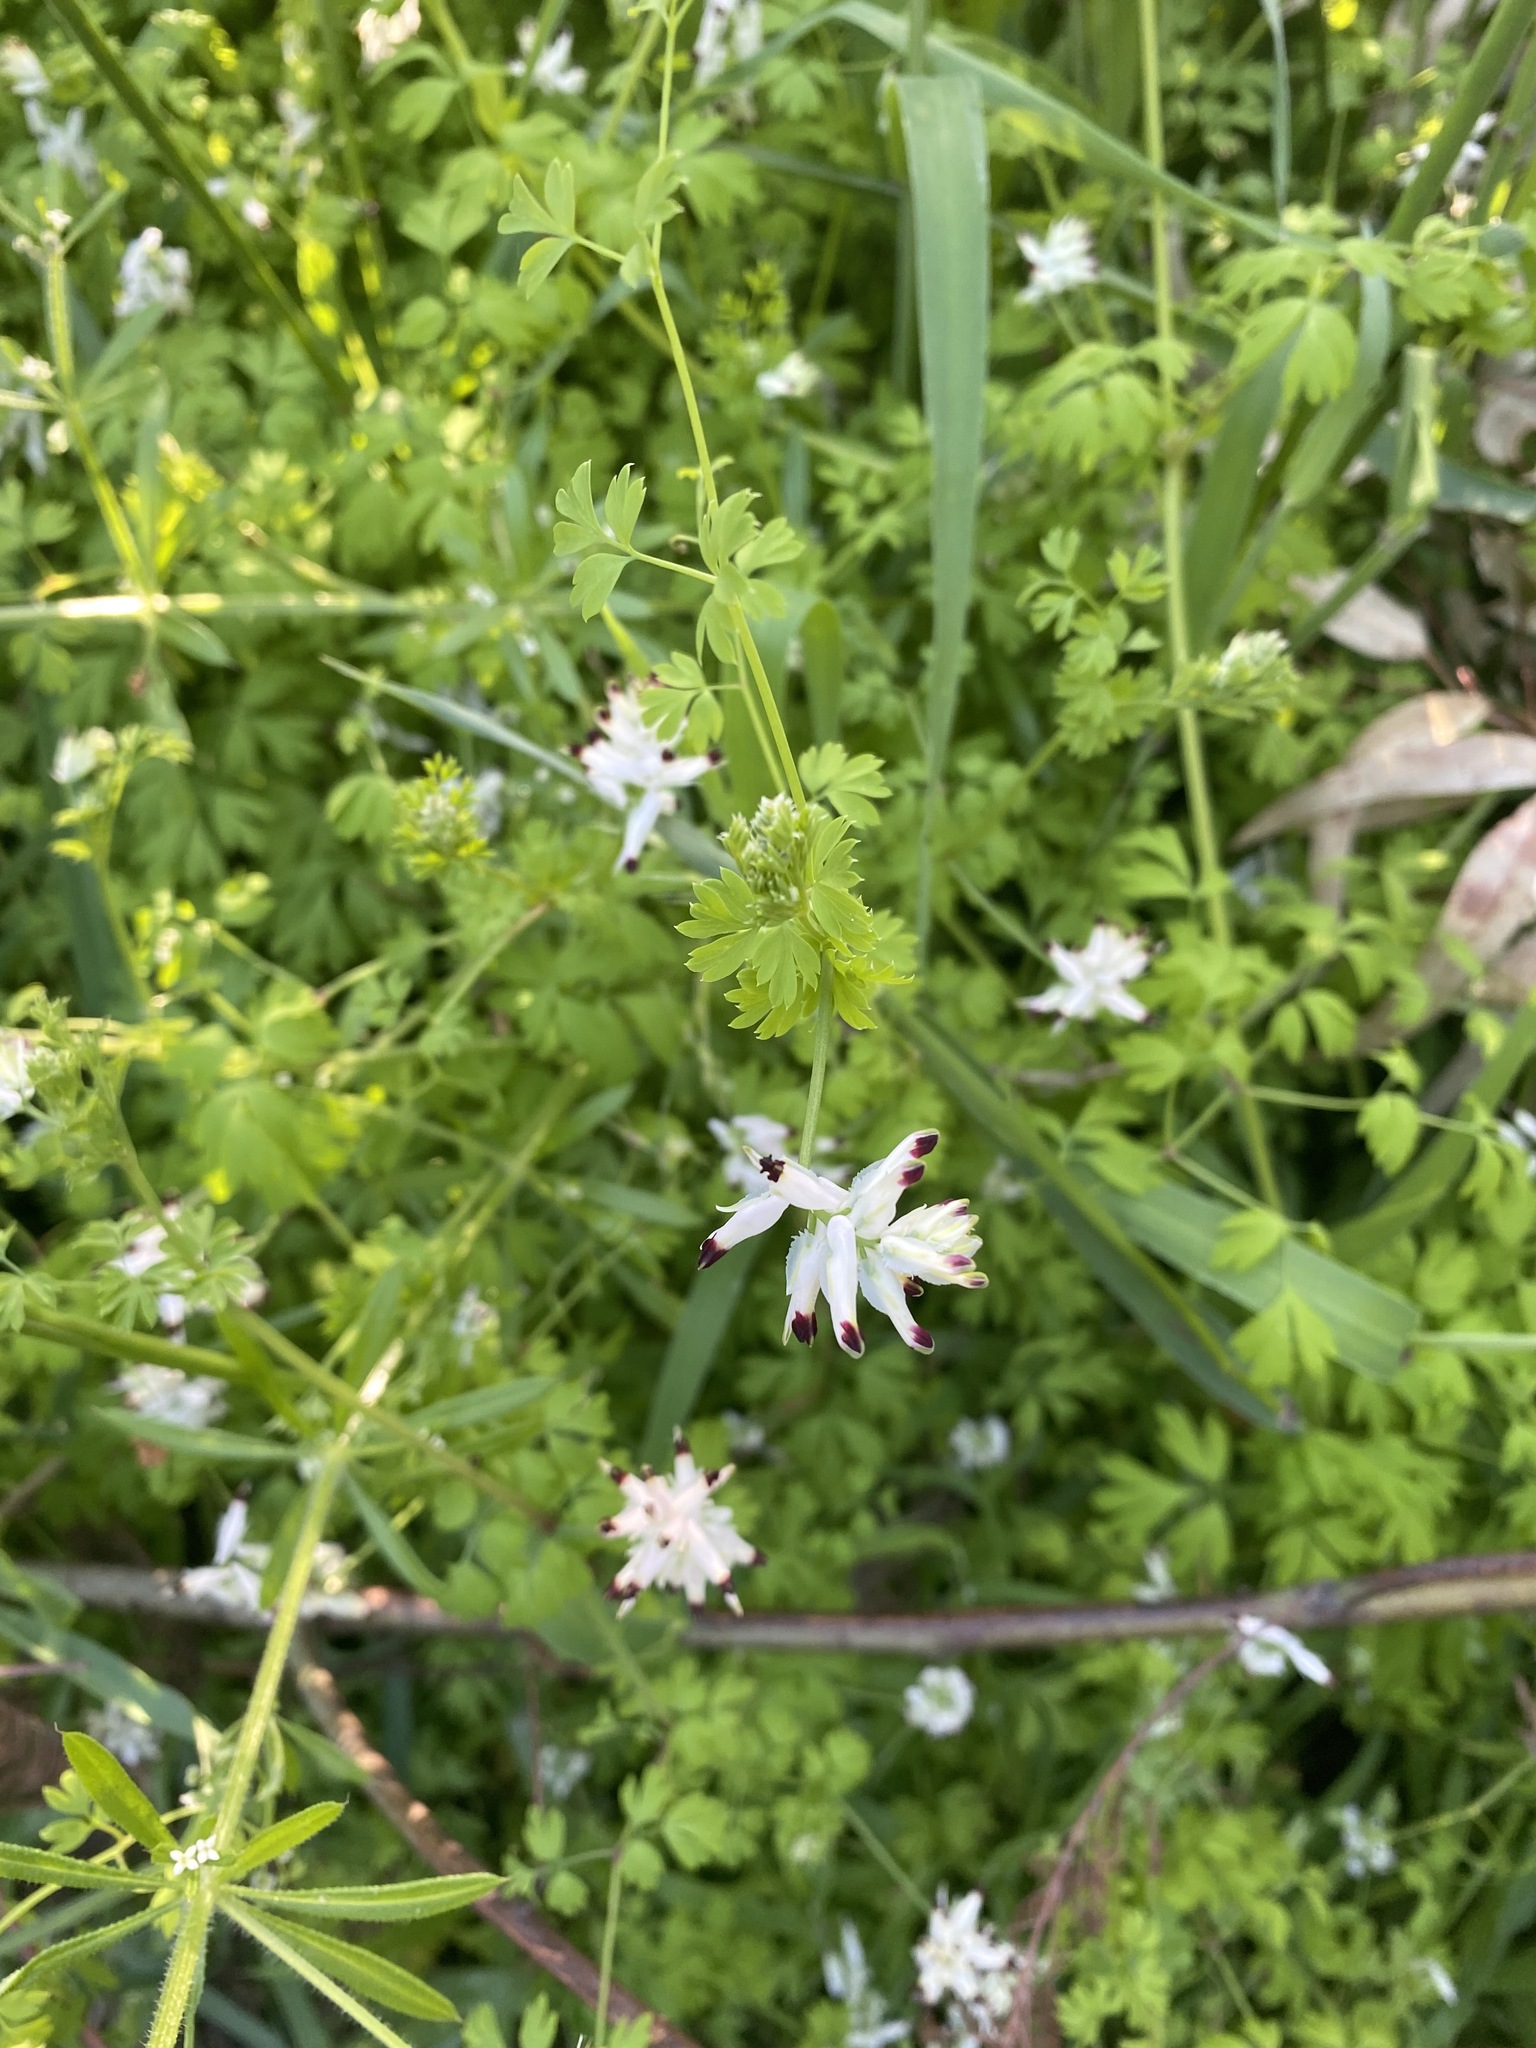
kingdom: Plantae
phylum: Tracheophyta
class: Magnoliopsida
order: Ranunculales
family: Papaveraceae
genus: Fumaria
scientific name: Fumaria capreolata
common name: White ramping-fumitory
